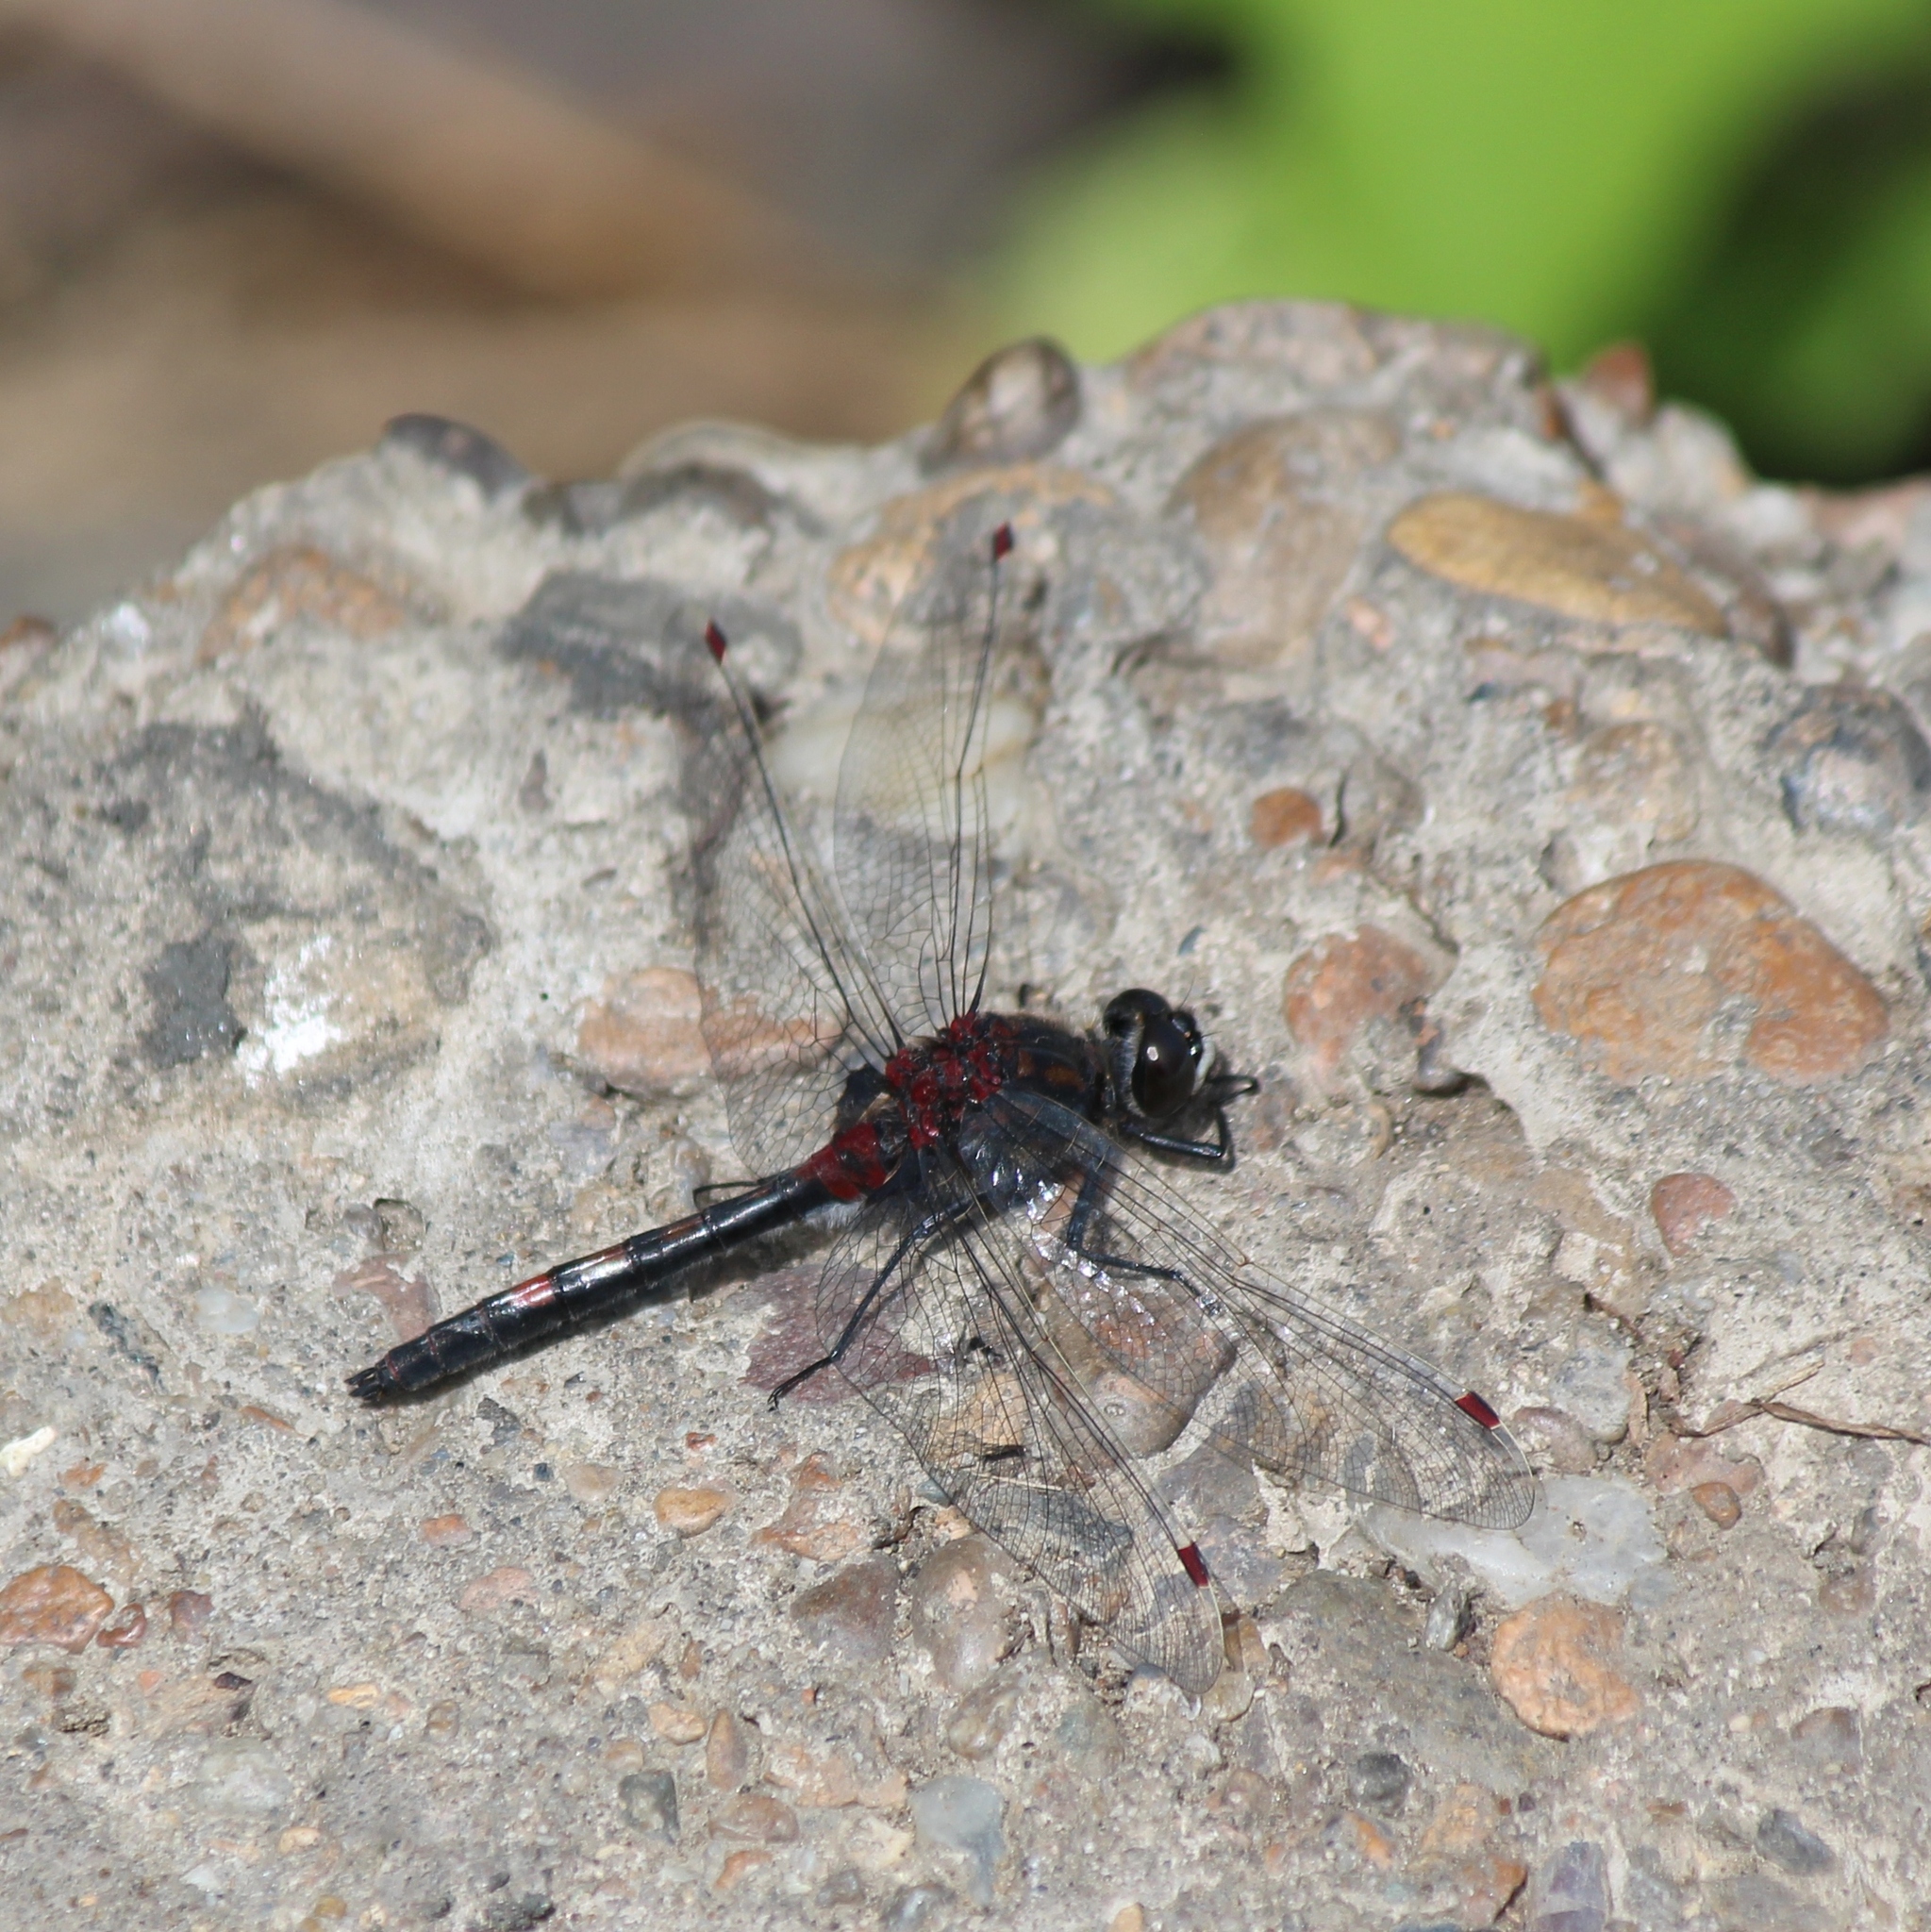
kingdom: Animalia
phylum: Arthropoda
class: Insecta
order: Odonata
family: Libellulidae
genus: Leucorrhinia
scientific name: Leucorrhinia rubicunda
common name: Ruby whiteface
